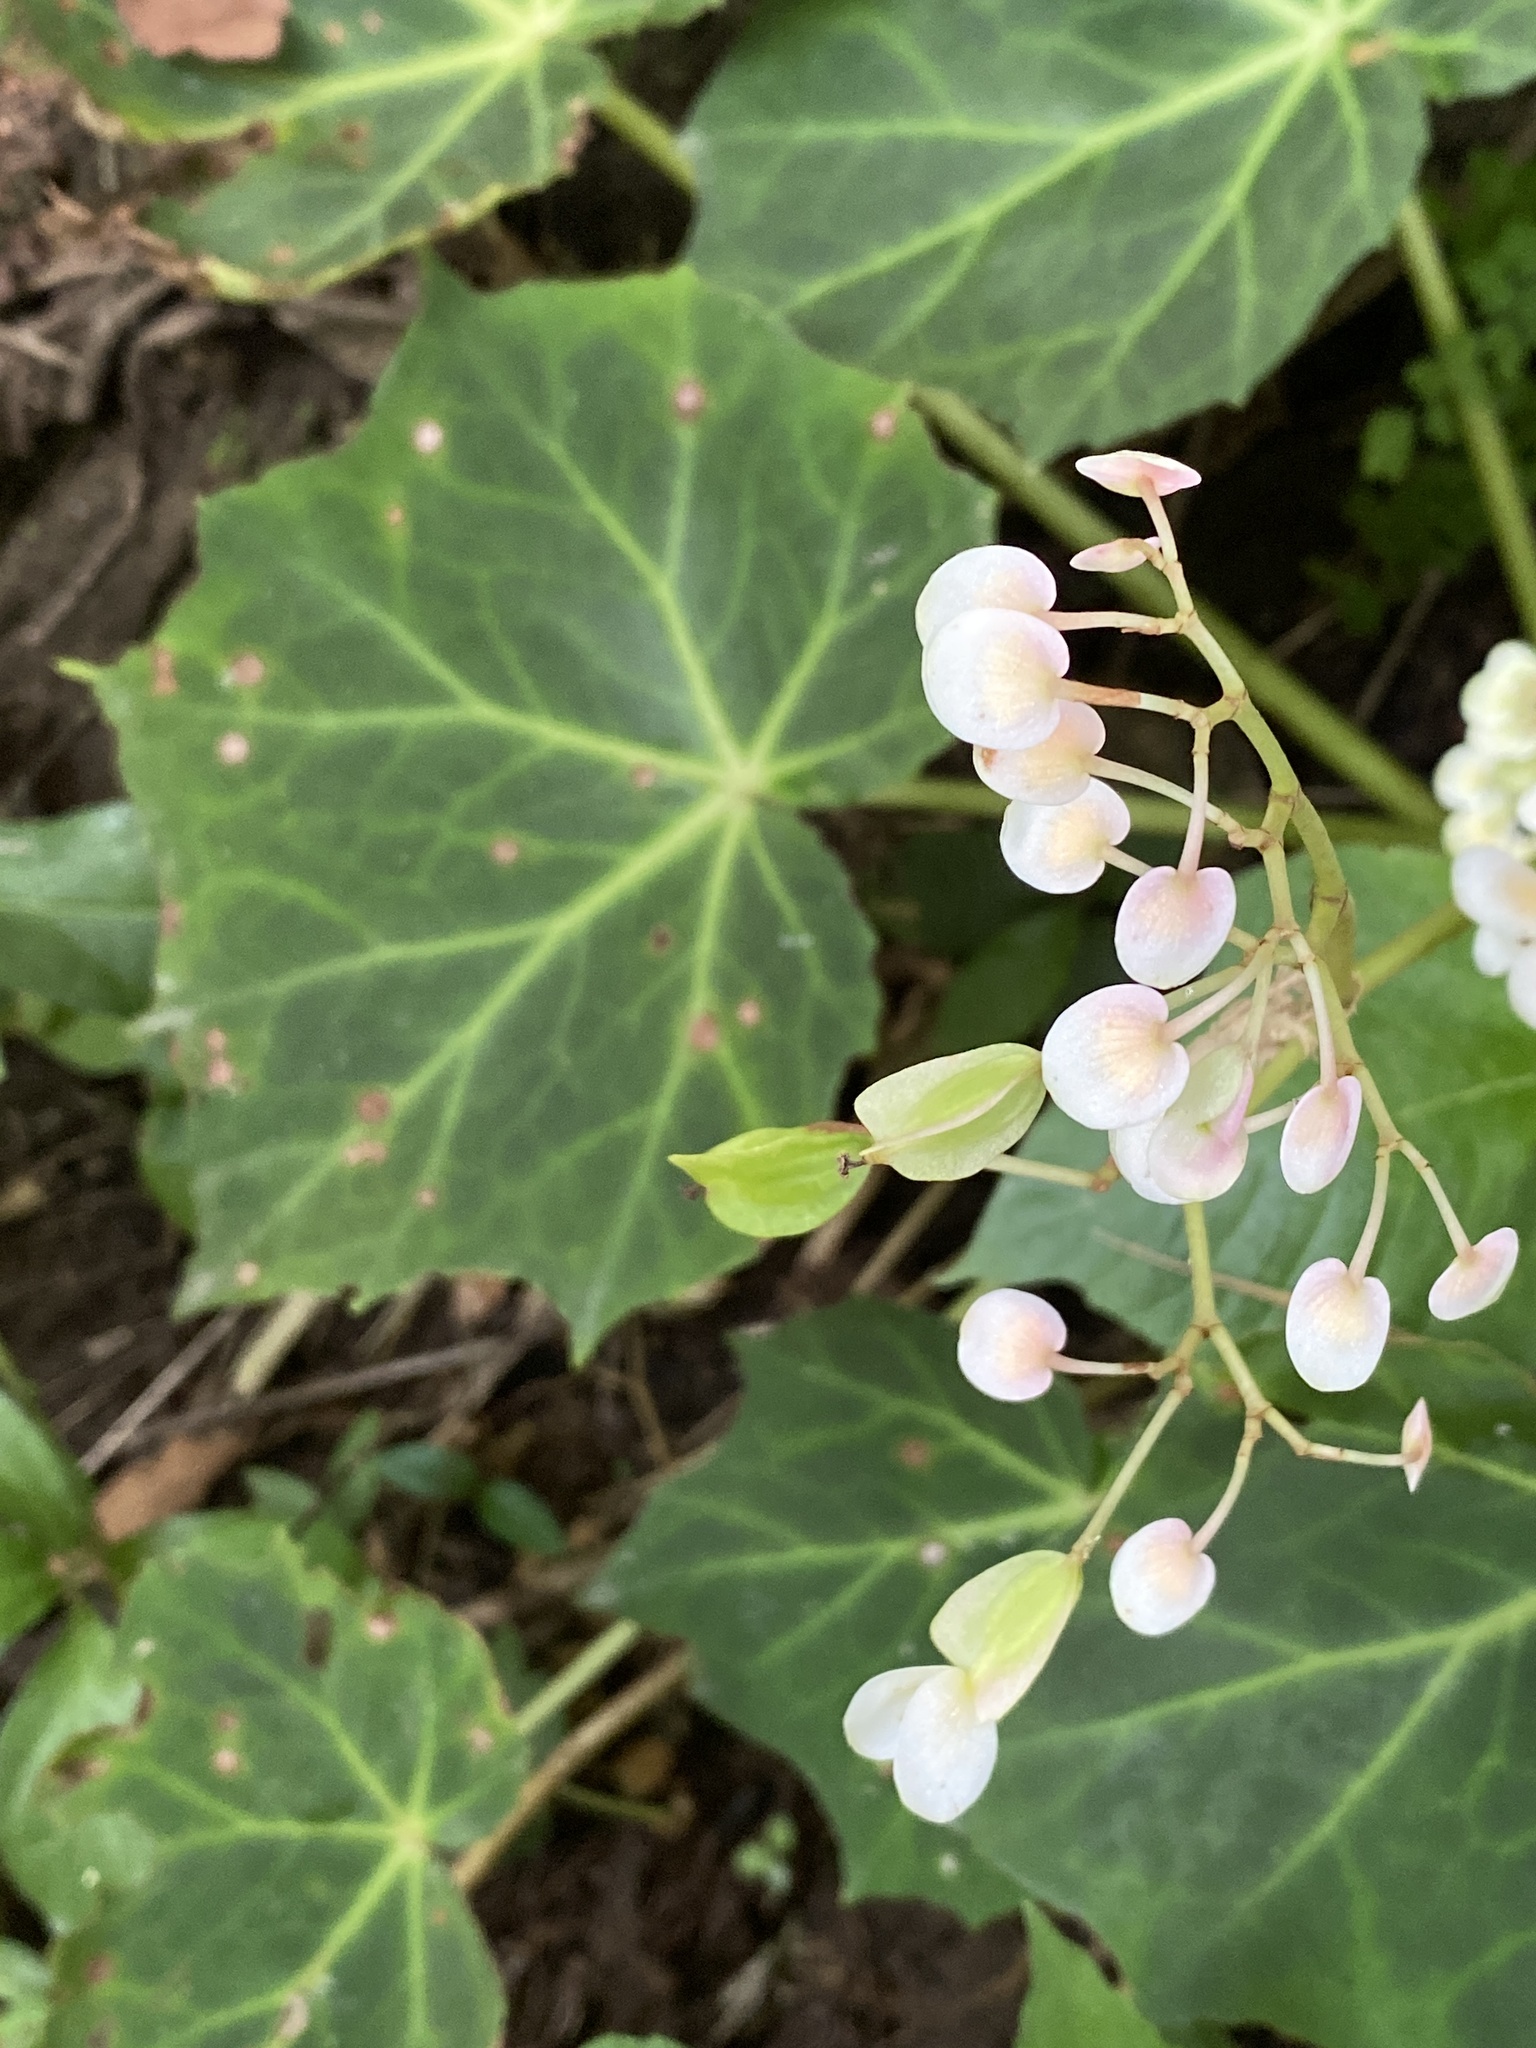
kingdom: Plantae
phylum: Tracheophyta
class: Magnoliopsida
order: Cucurbitales
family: Begoniaceae
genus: Begonia
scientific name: Begonia plebeja
